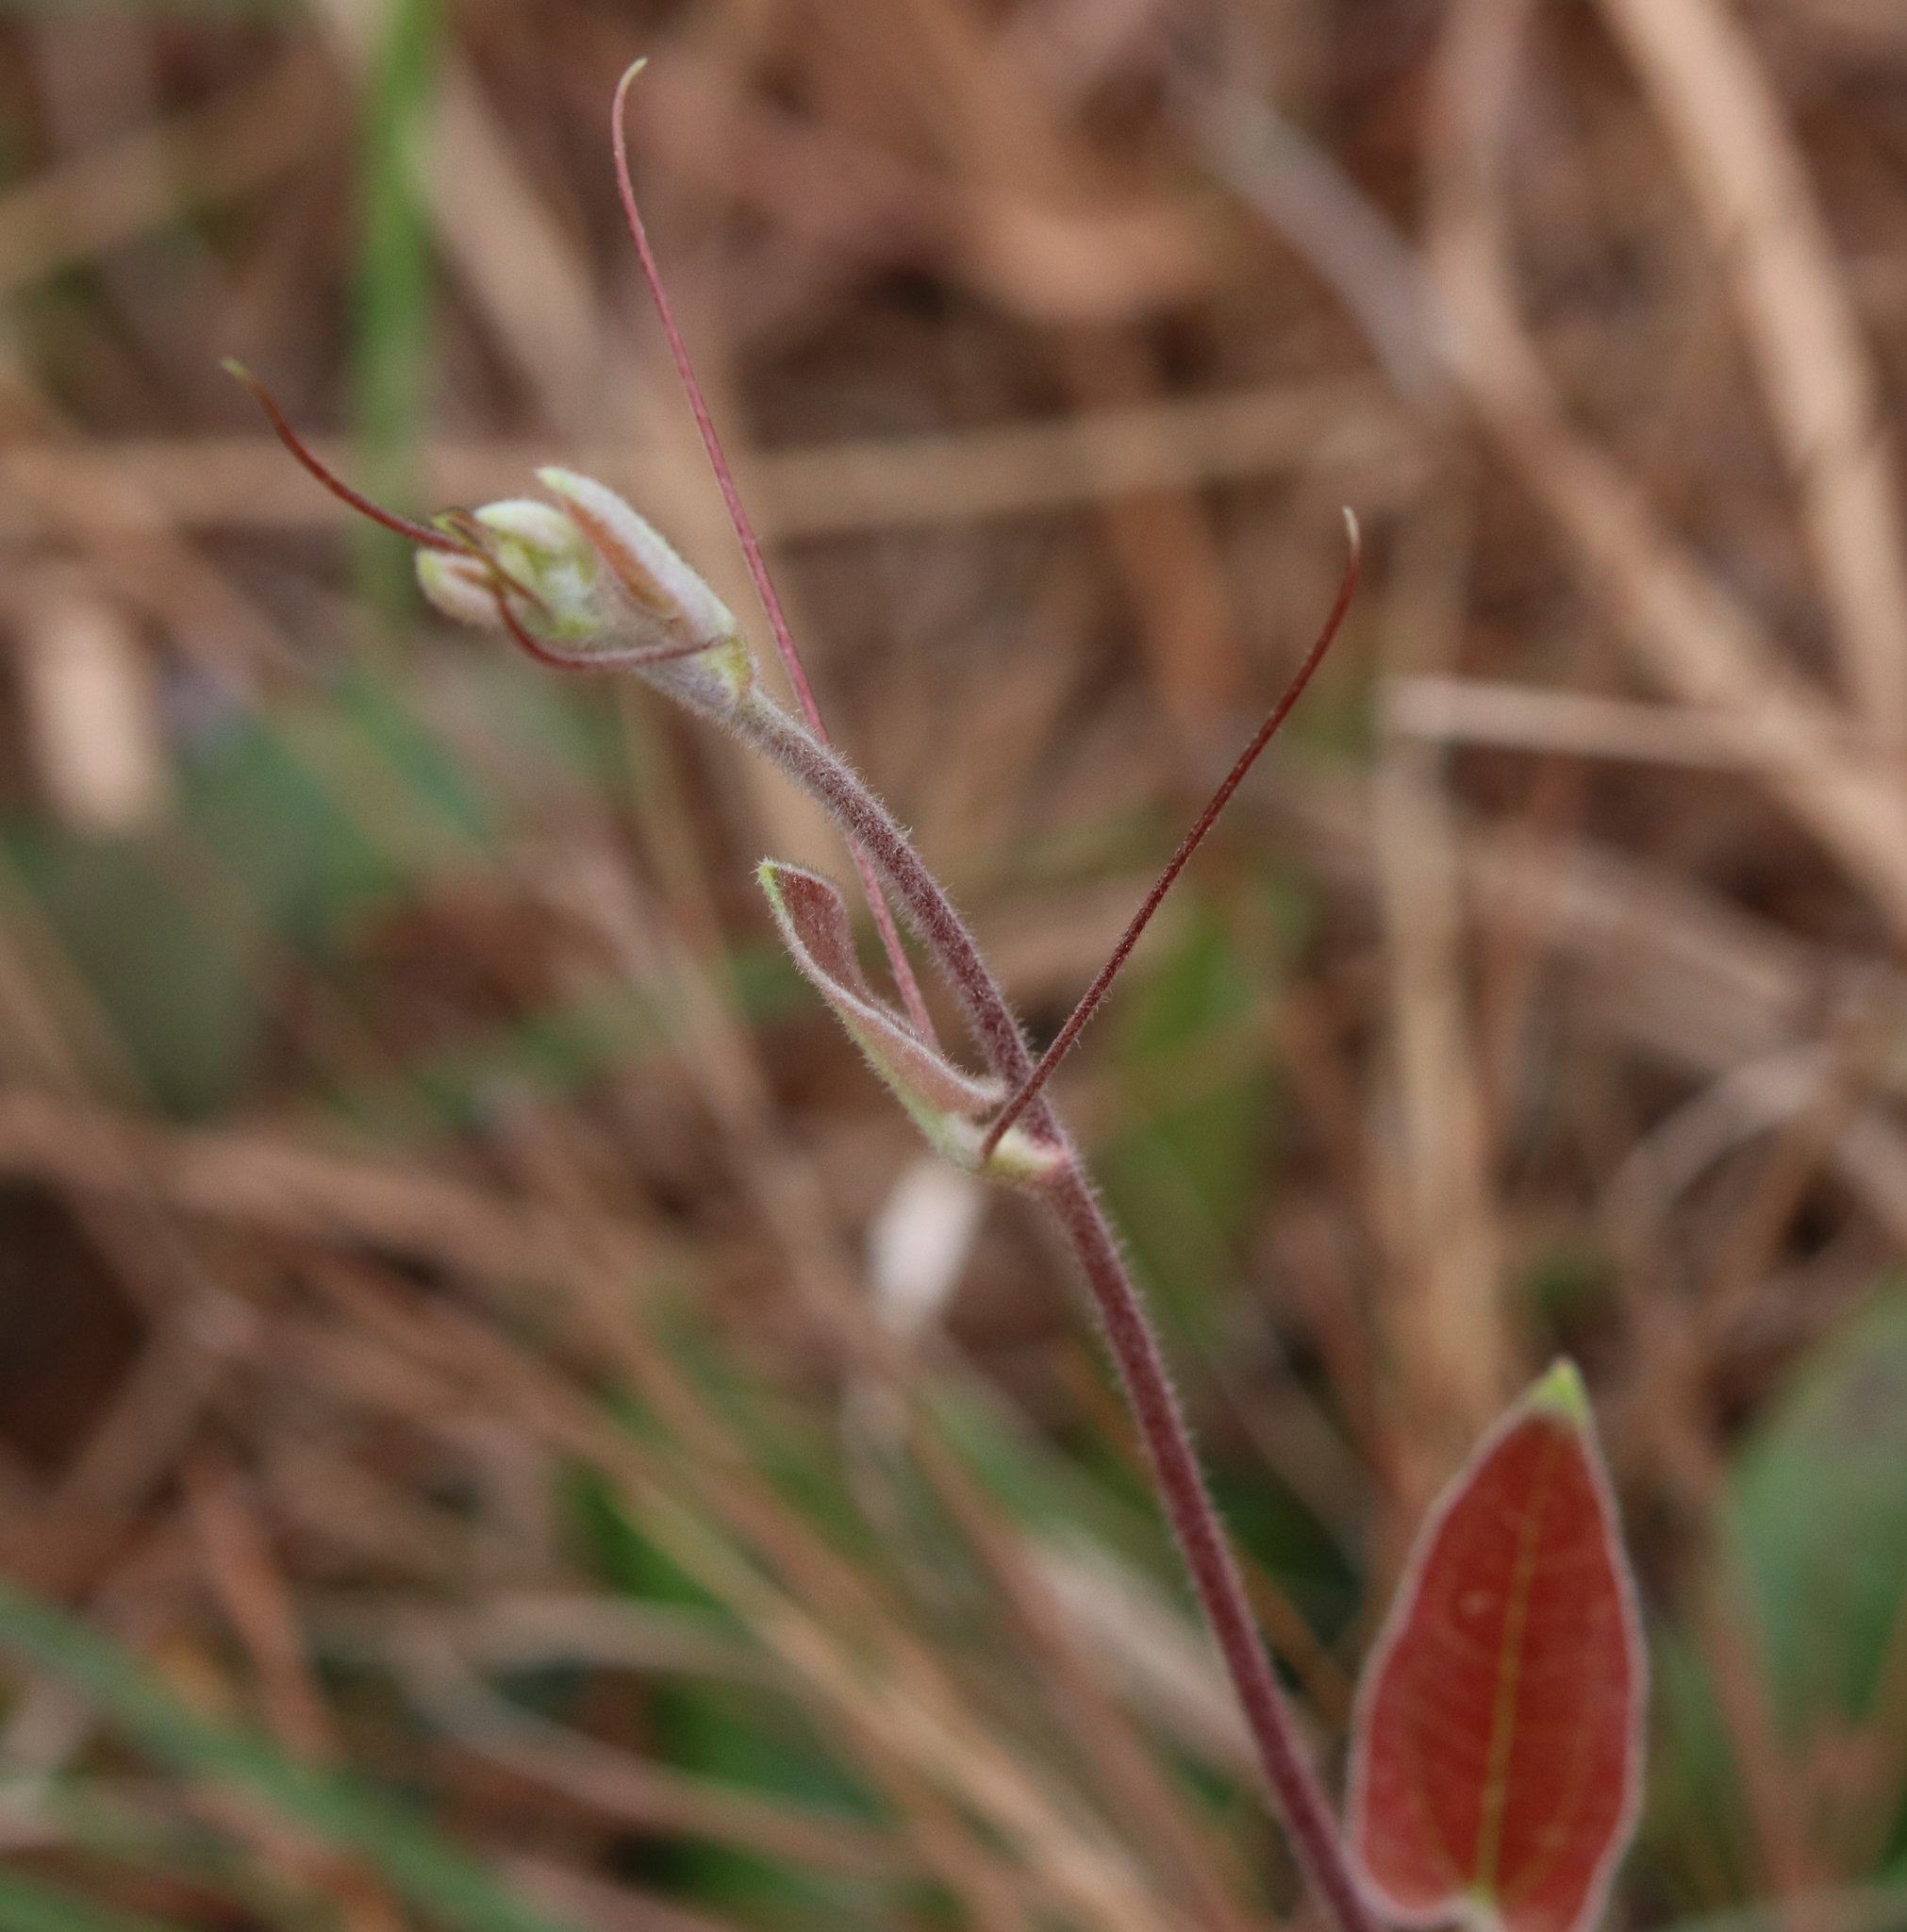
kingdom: Plantae
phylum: Tracheophyta
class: Liliopsida
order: Liliales
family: Smilacaceae
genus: Smilax
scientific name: Smilax pumila
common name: Sarsaparilla-vine
